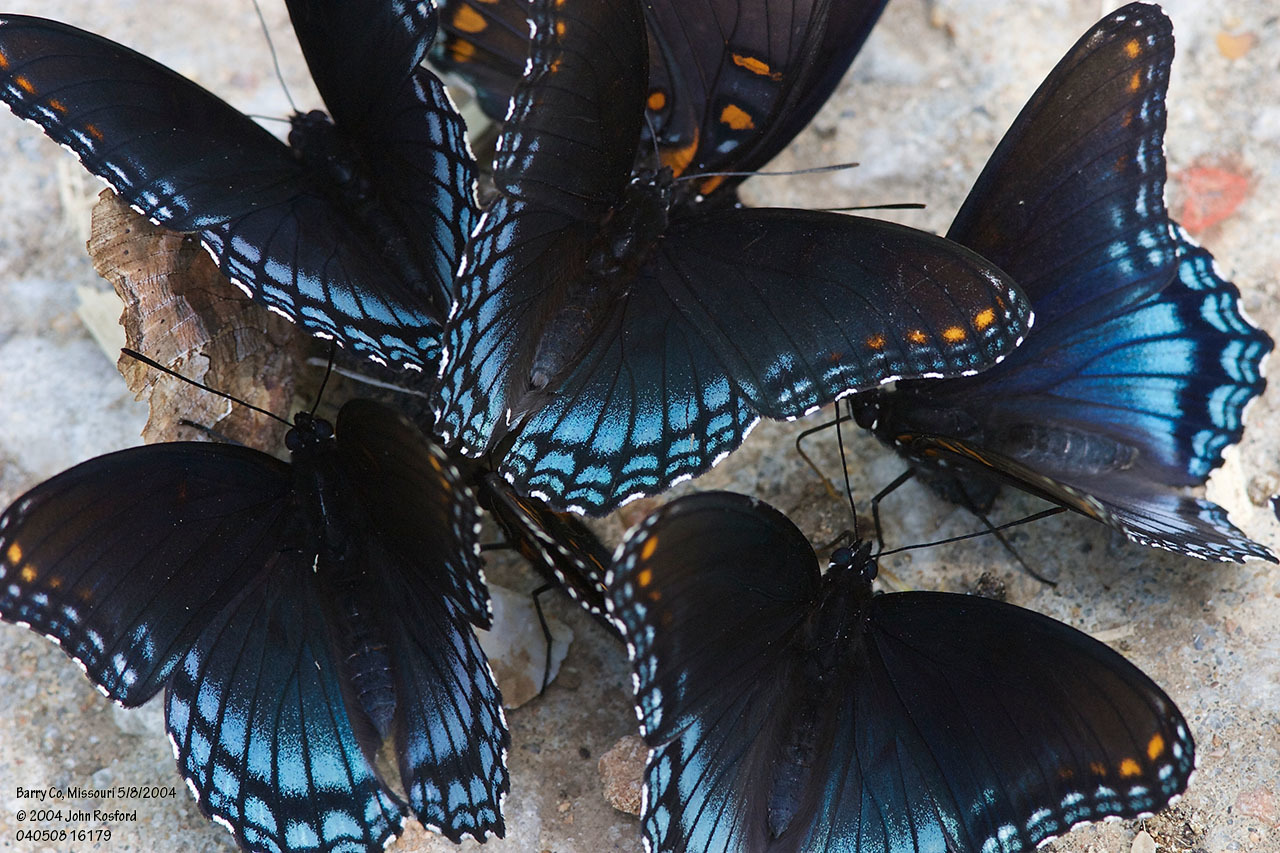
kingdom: Animalia
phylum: Arthropoda
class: Insecta
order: Lepidoptera
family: Nymphalidae
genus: Limenitis
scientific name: Limenitis astyanax
